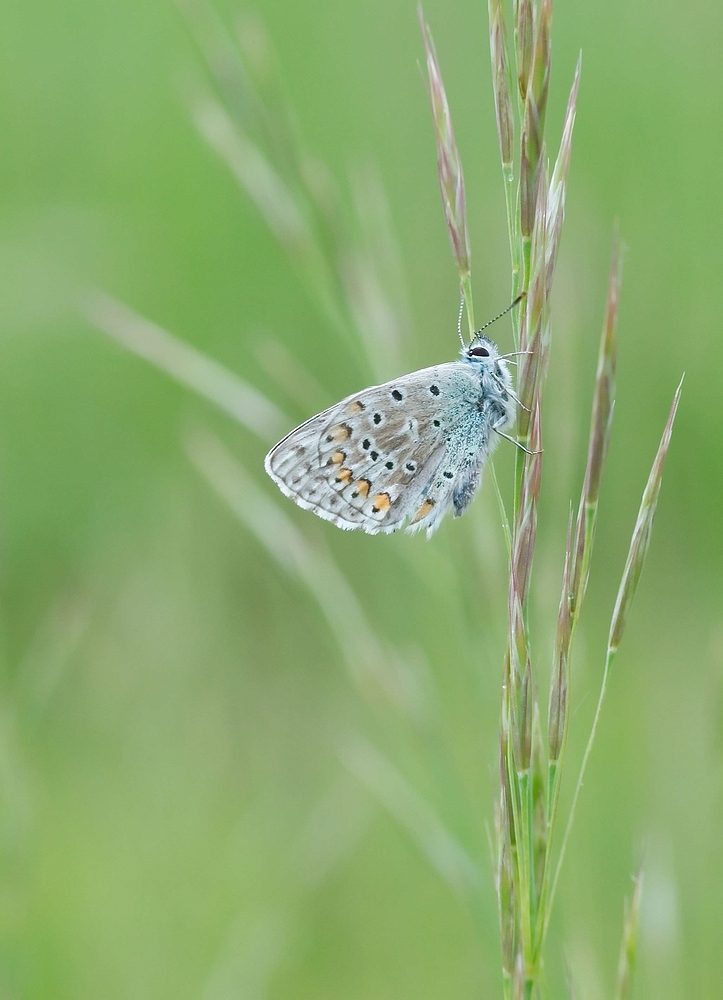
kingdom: Animalia
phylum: Arthropoda
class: Insecta
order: Lepidoptera
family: Lycaenidae
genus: Lysandra
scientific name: Lysandra bellargus
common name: Adonis blue
